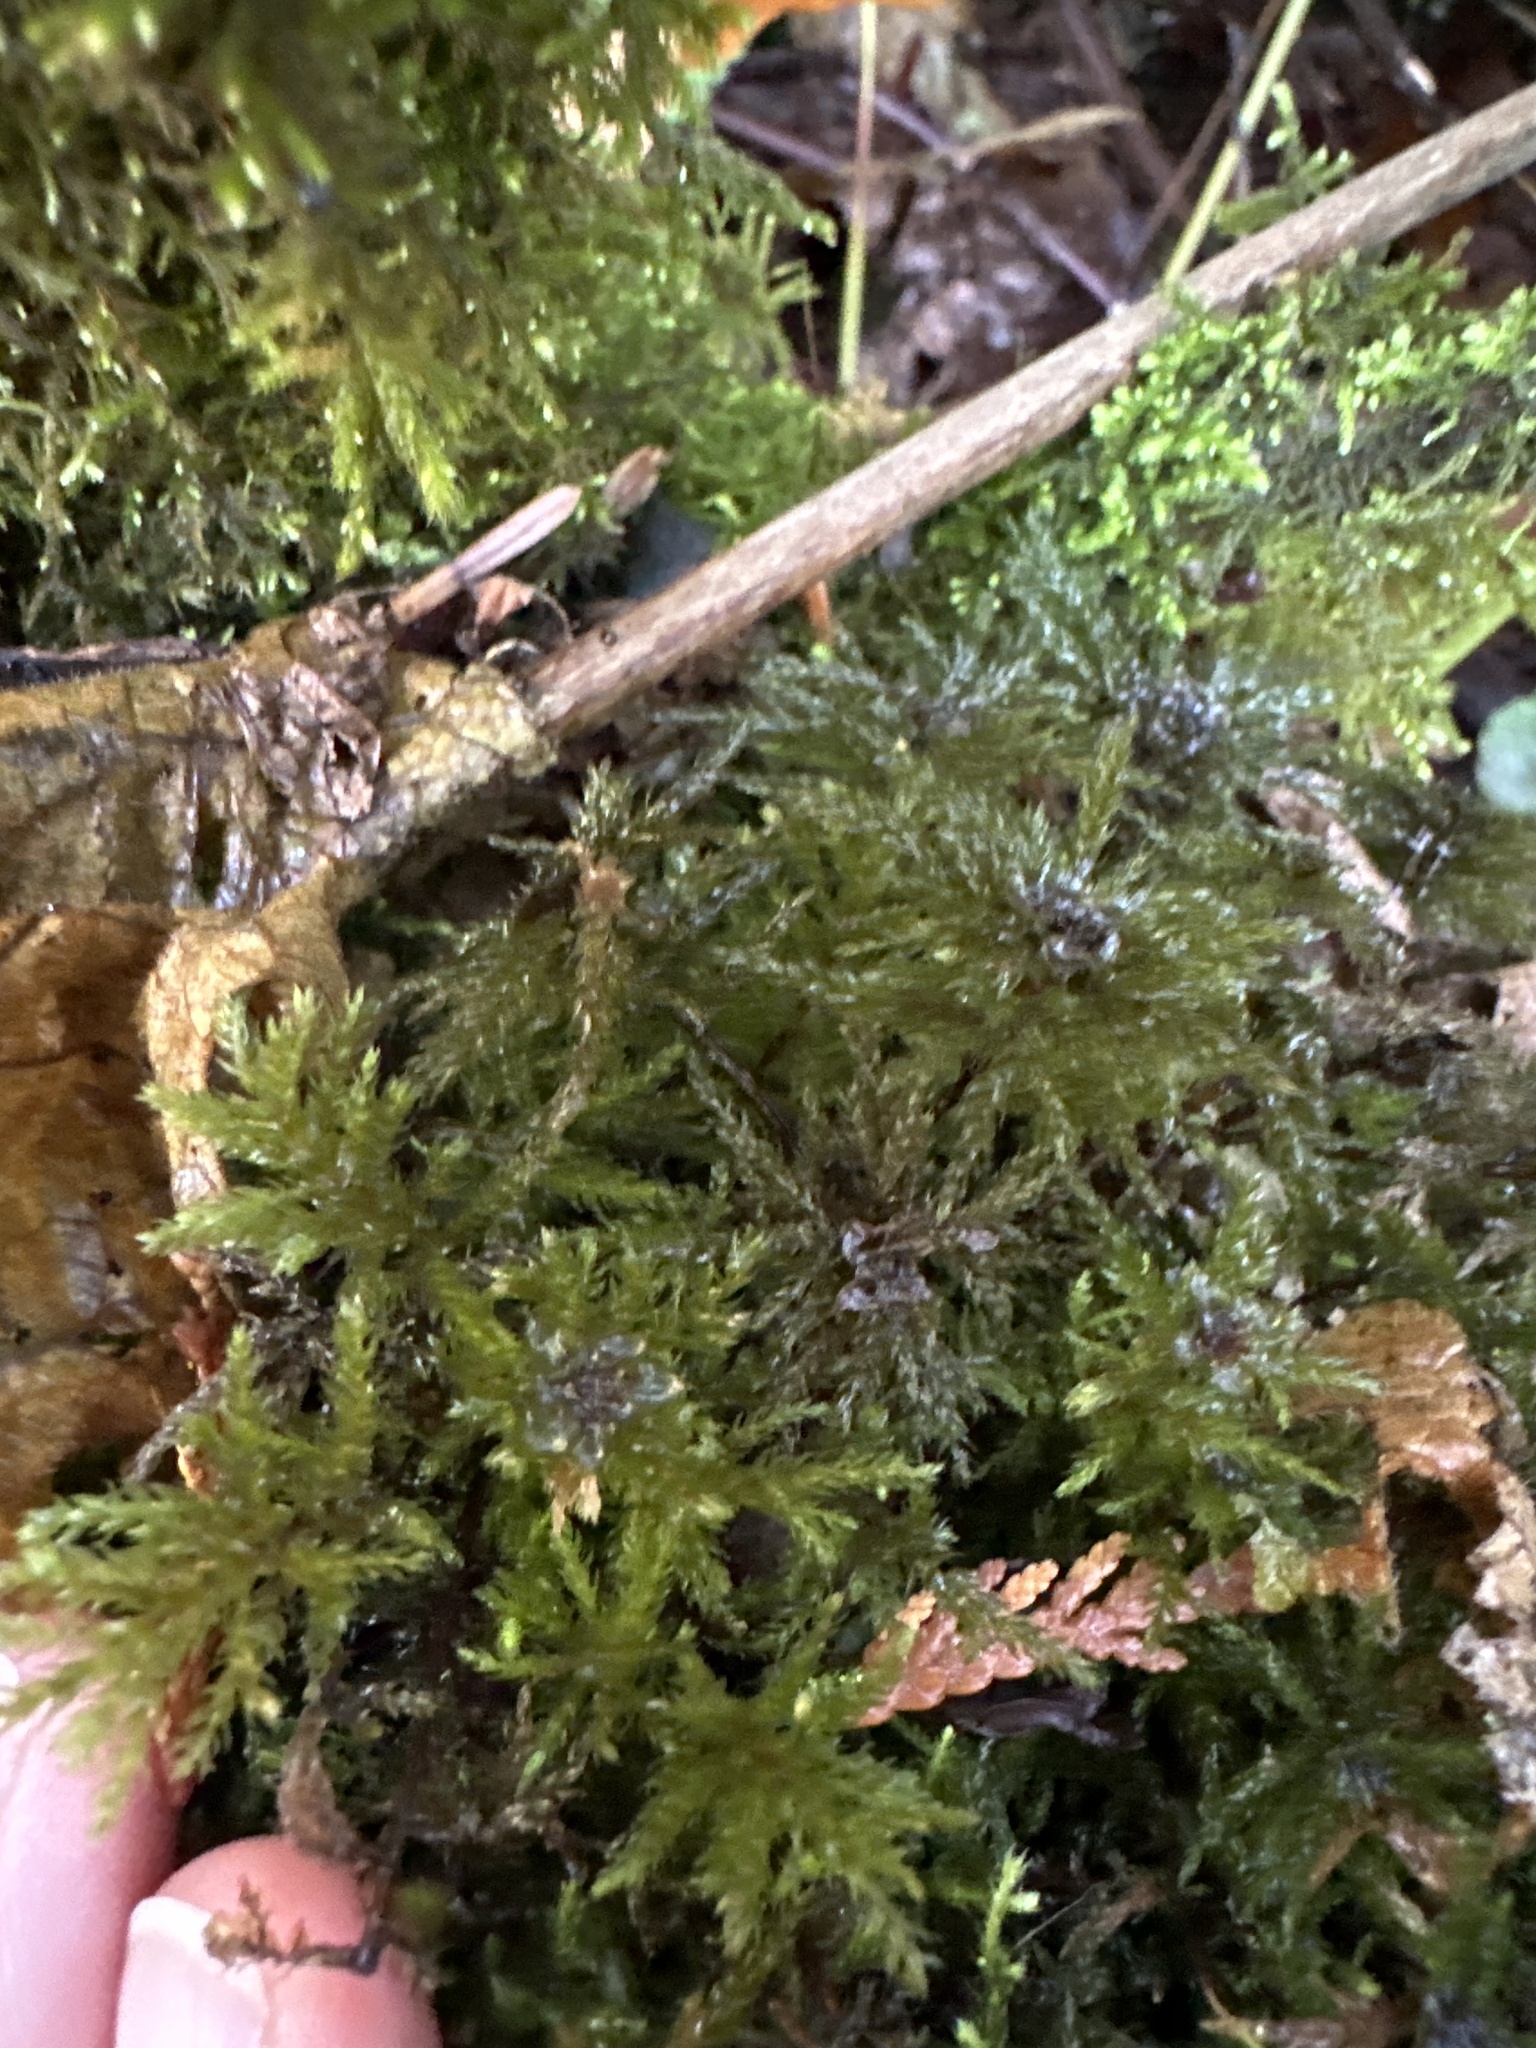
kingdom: Plantae
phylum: Bryophyta
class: Bryopsida
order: Bryales
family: Mniaceae
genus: Leucolepis
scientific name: Leucolepis acanthoneura
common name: Leucolepis umbrella moss
